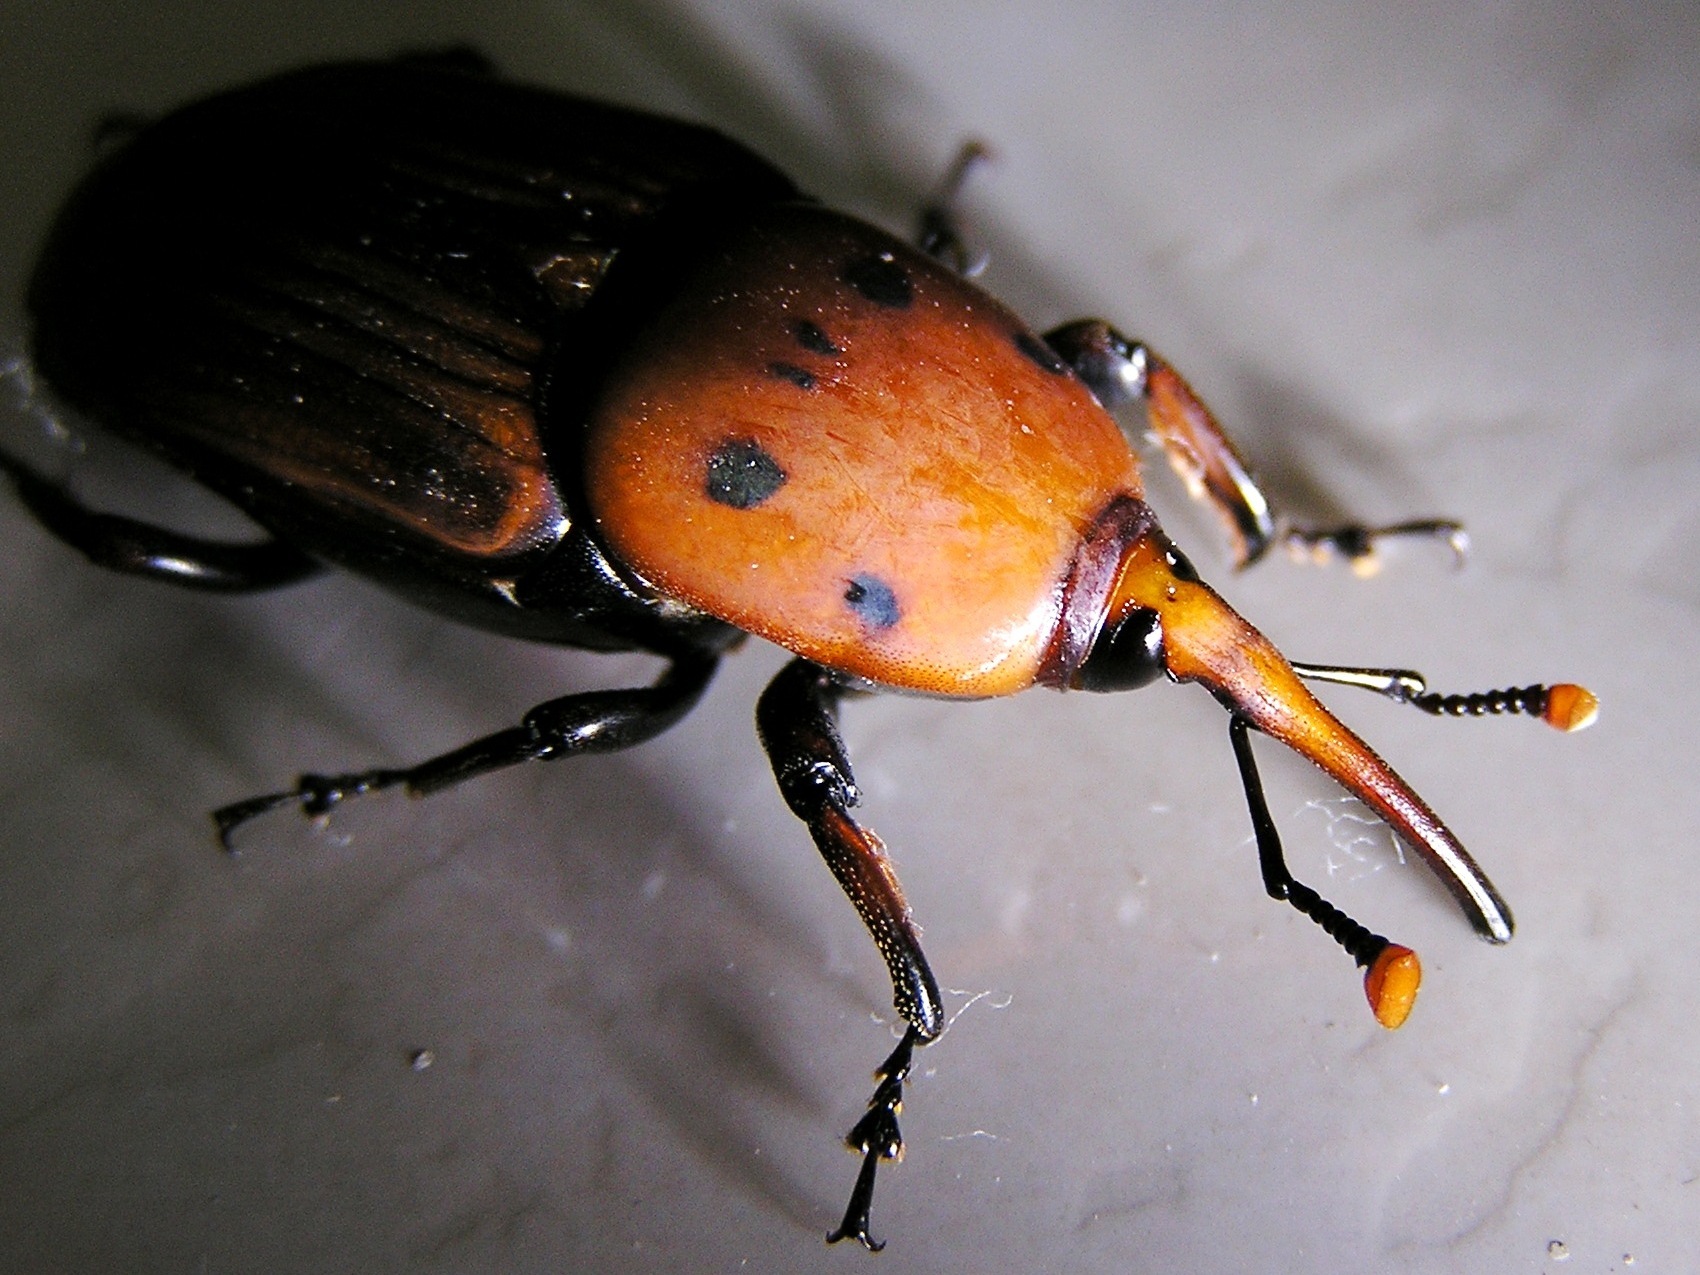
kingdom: Animalia
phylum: Arthropoda
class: Insecta
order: Coleoptera
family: Dryophthoridae
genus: Rhynchophorus
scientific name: Rhynchophorus ferrugineus
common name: Red palm weevil
